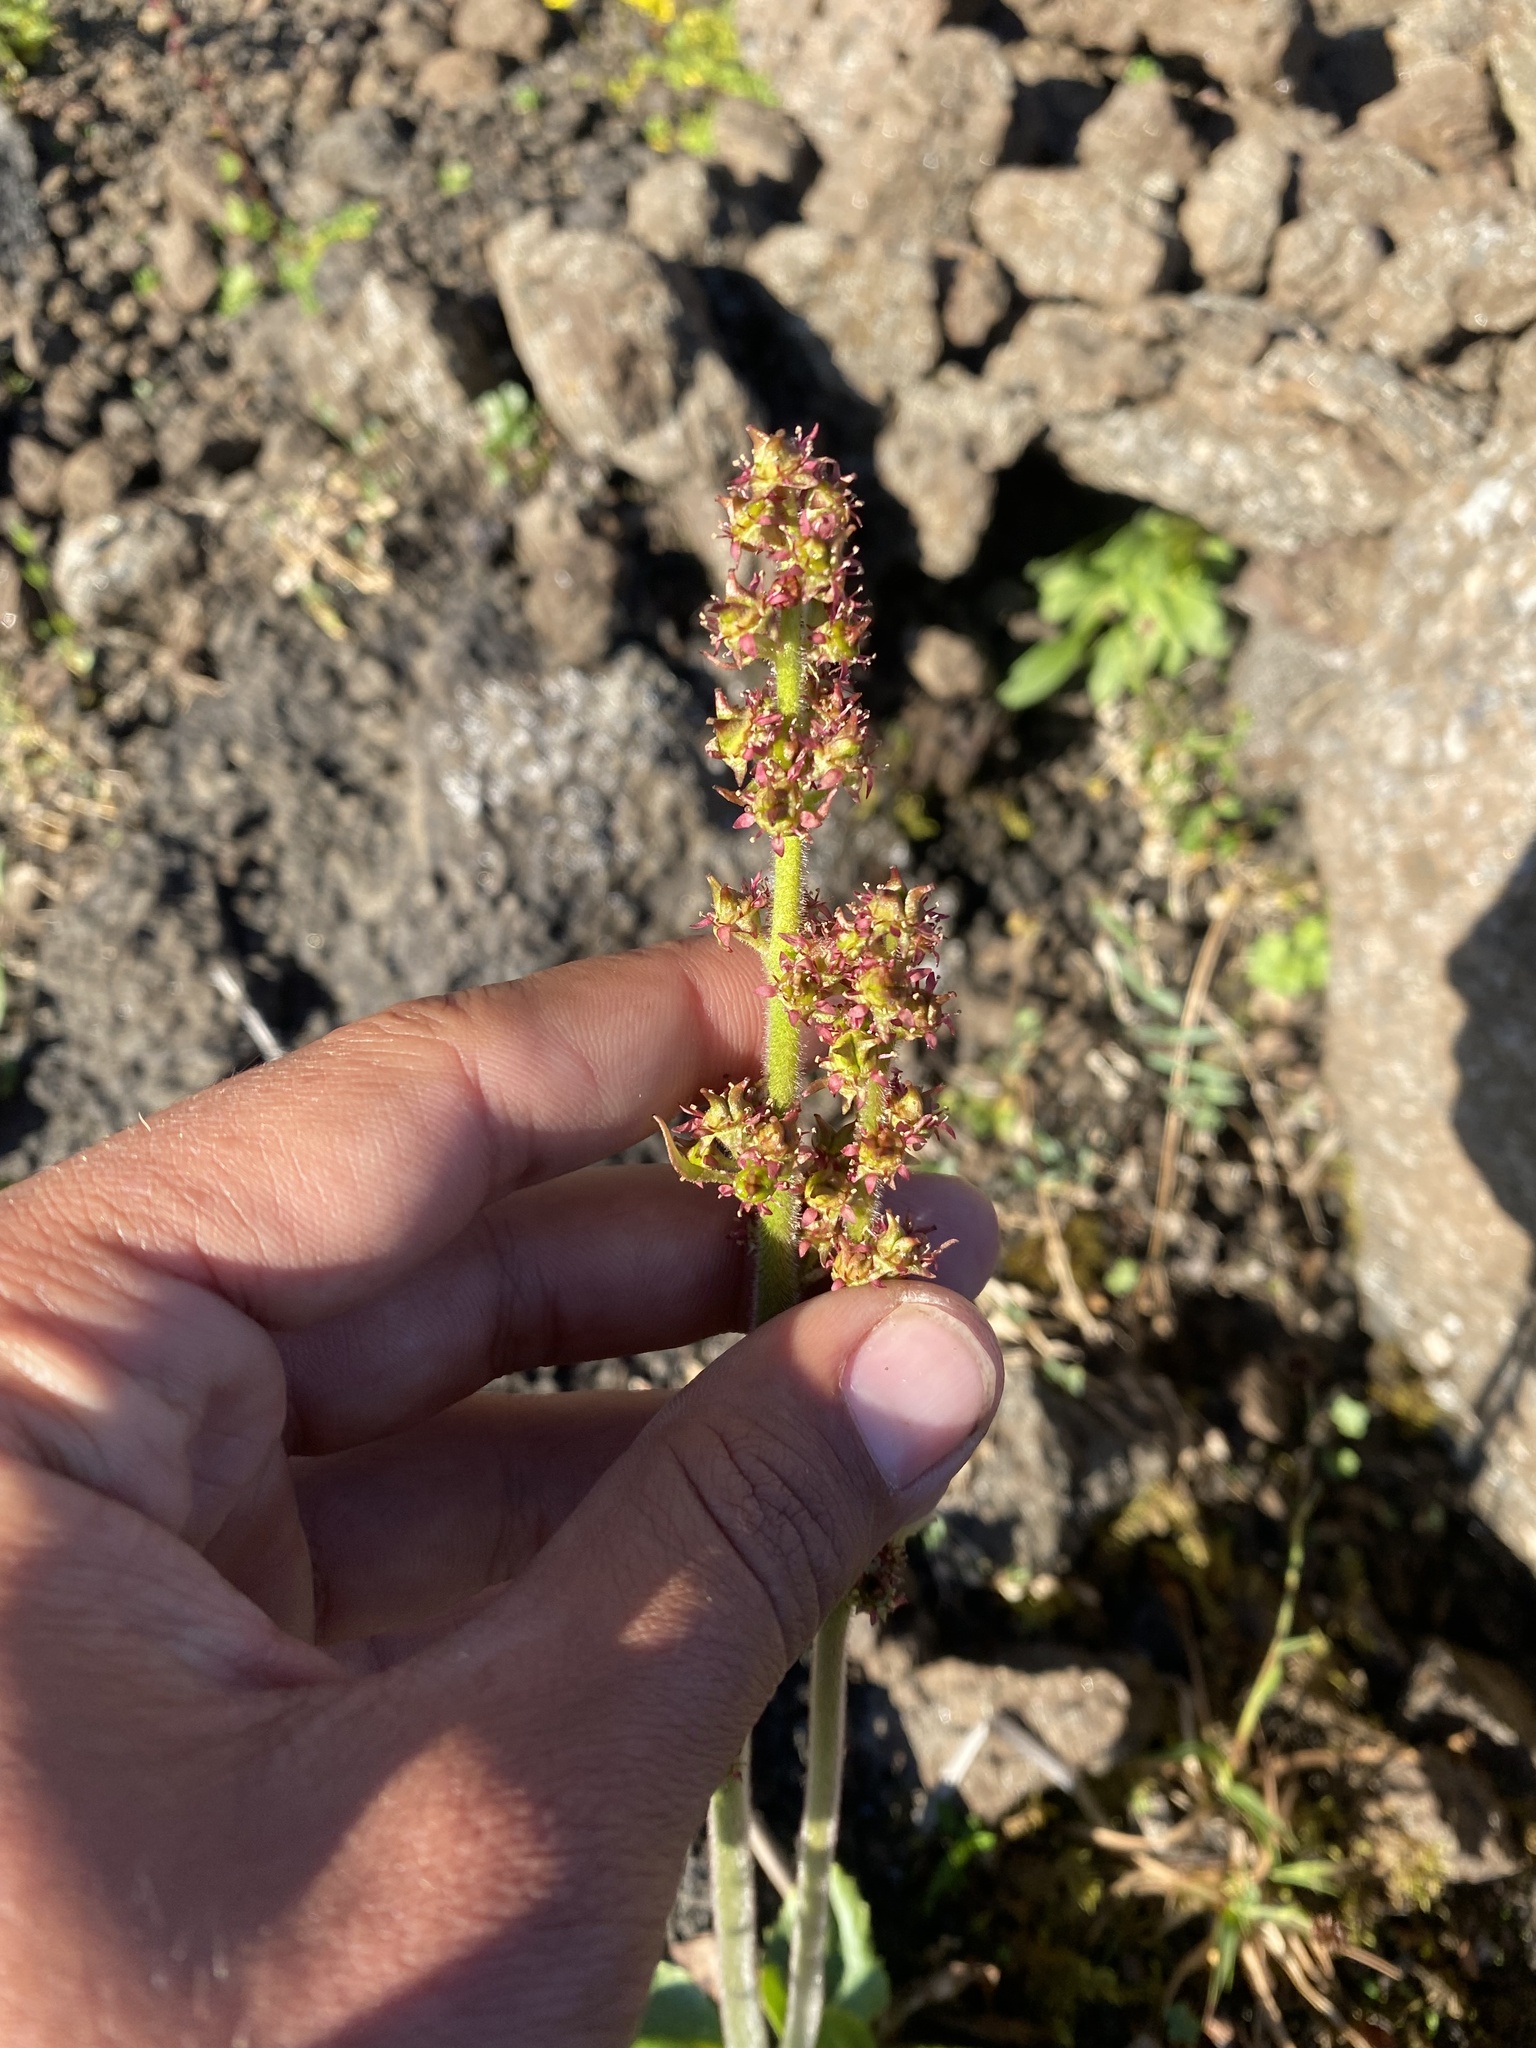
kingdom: Plantae
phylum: Tracheophyta
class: Magnoliopsida
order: Saxifragales
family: Saxifragaceae
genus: Micranthes
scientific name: Micranthes hieraciifolia
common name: Hawkweed-leaved saxifrage
